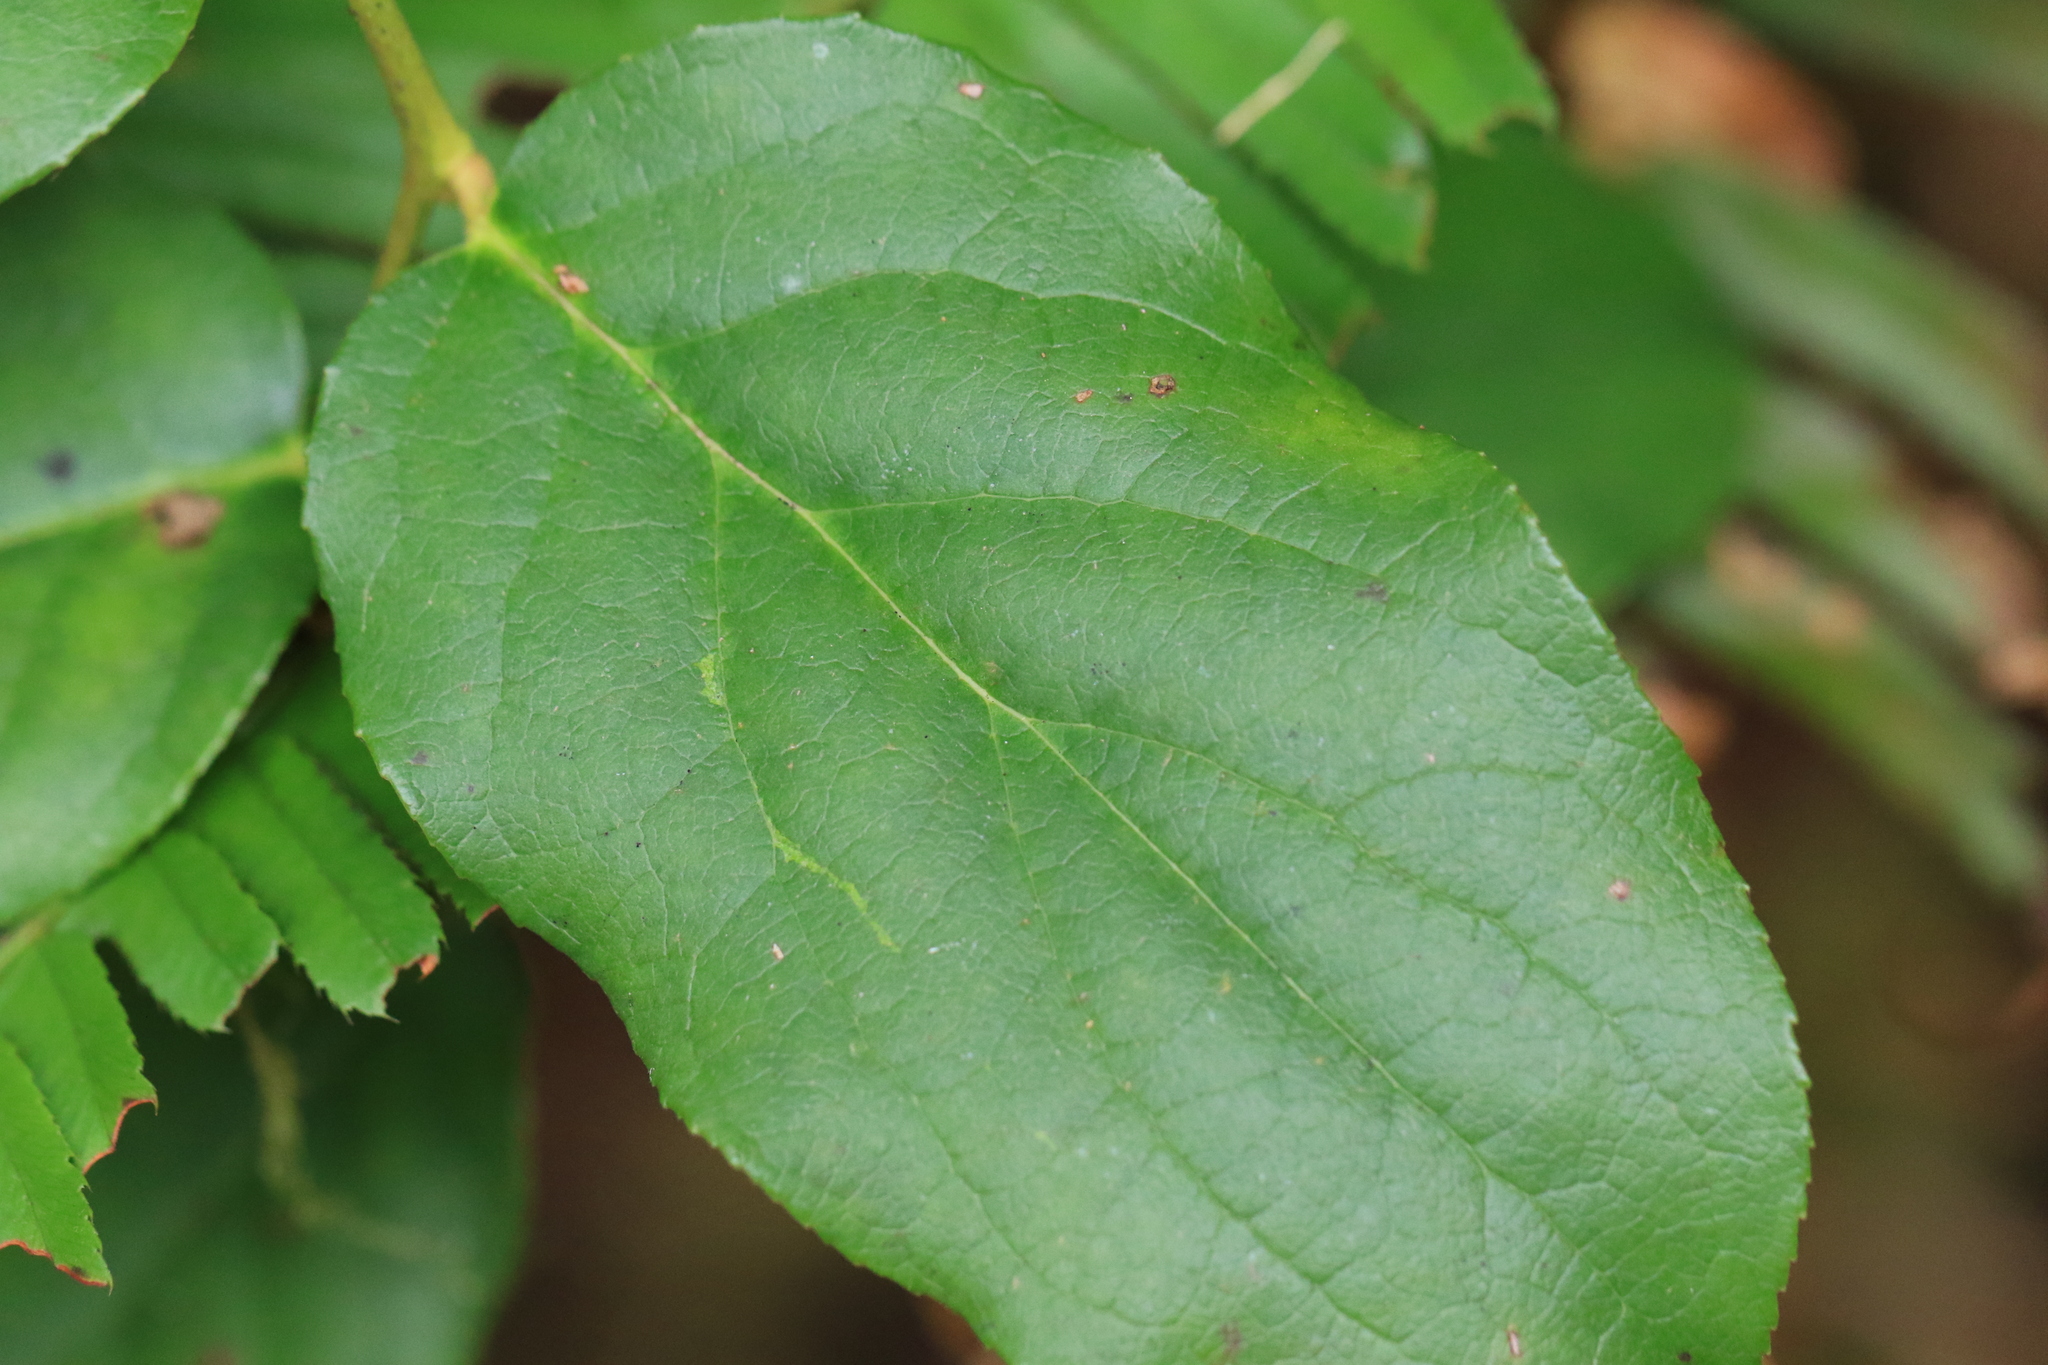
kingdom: Plantae
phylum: Tracheophyta
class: Magnoliopsida
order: Ericales
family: Ericaceae
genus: Gaultheria
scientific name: Gaultheria shallon
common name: Shallon
